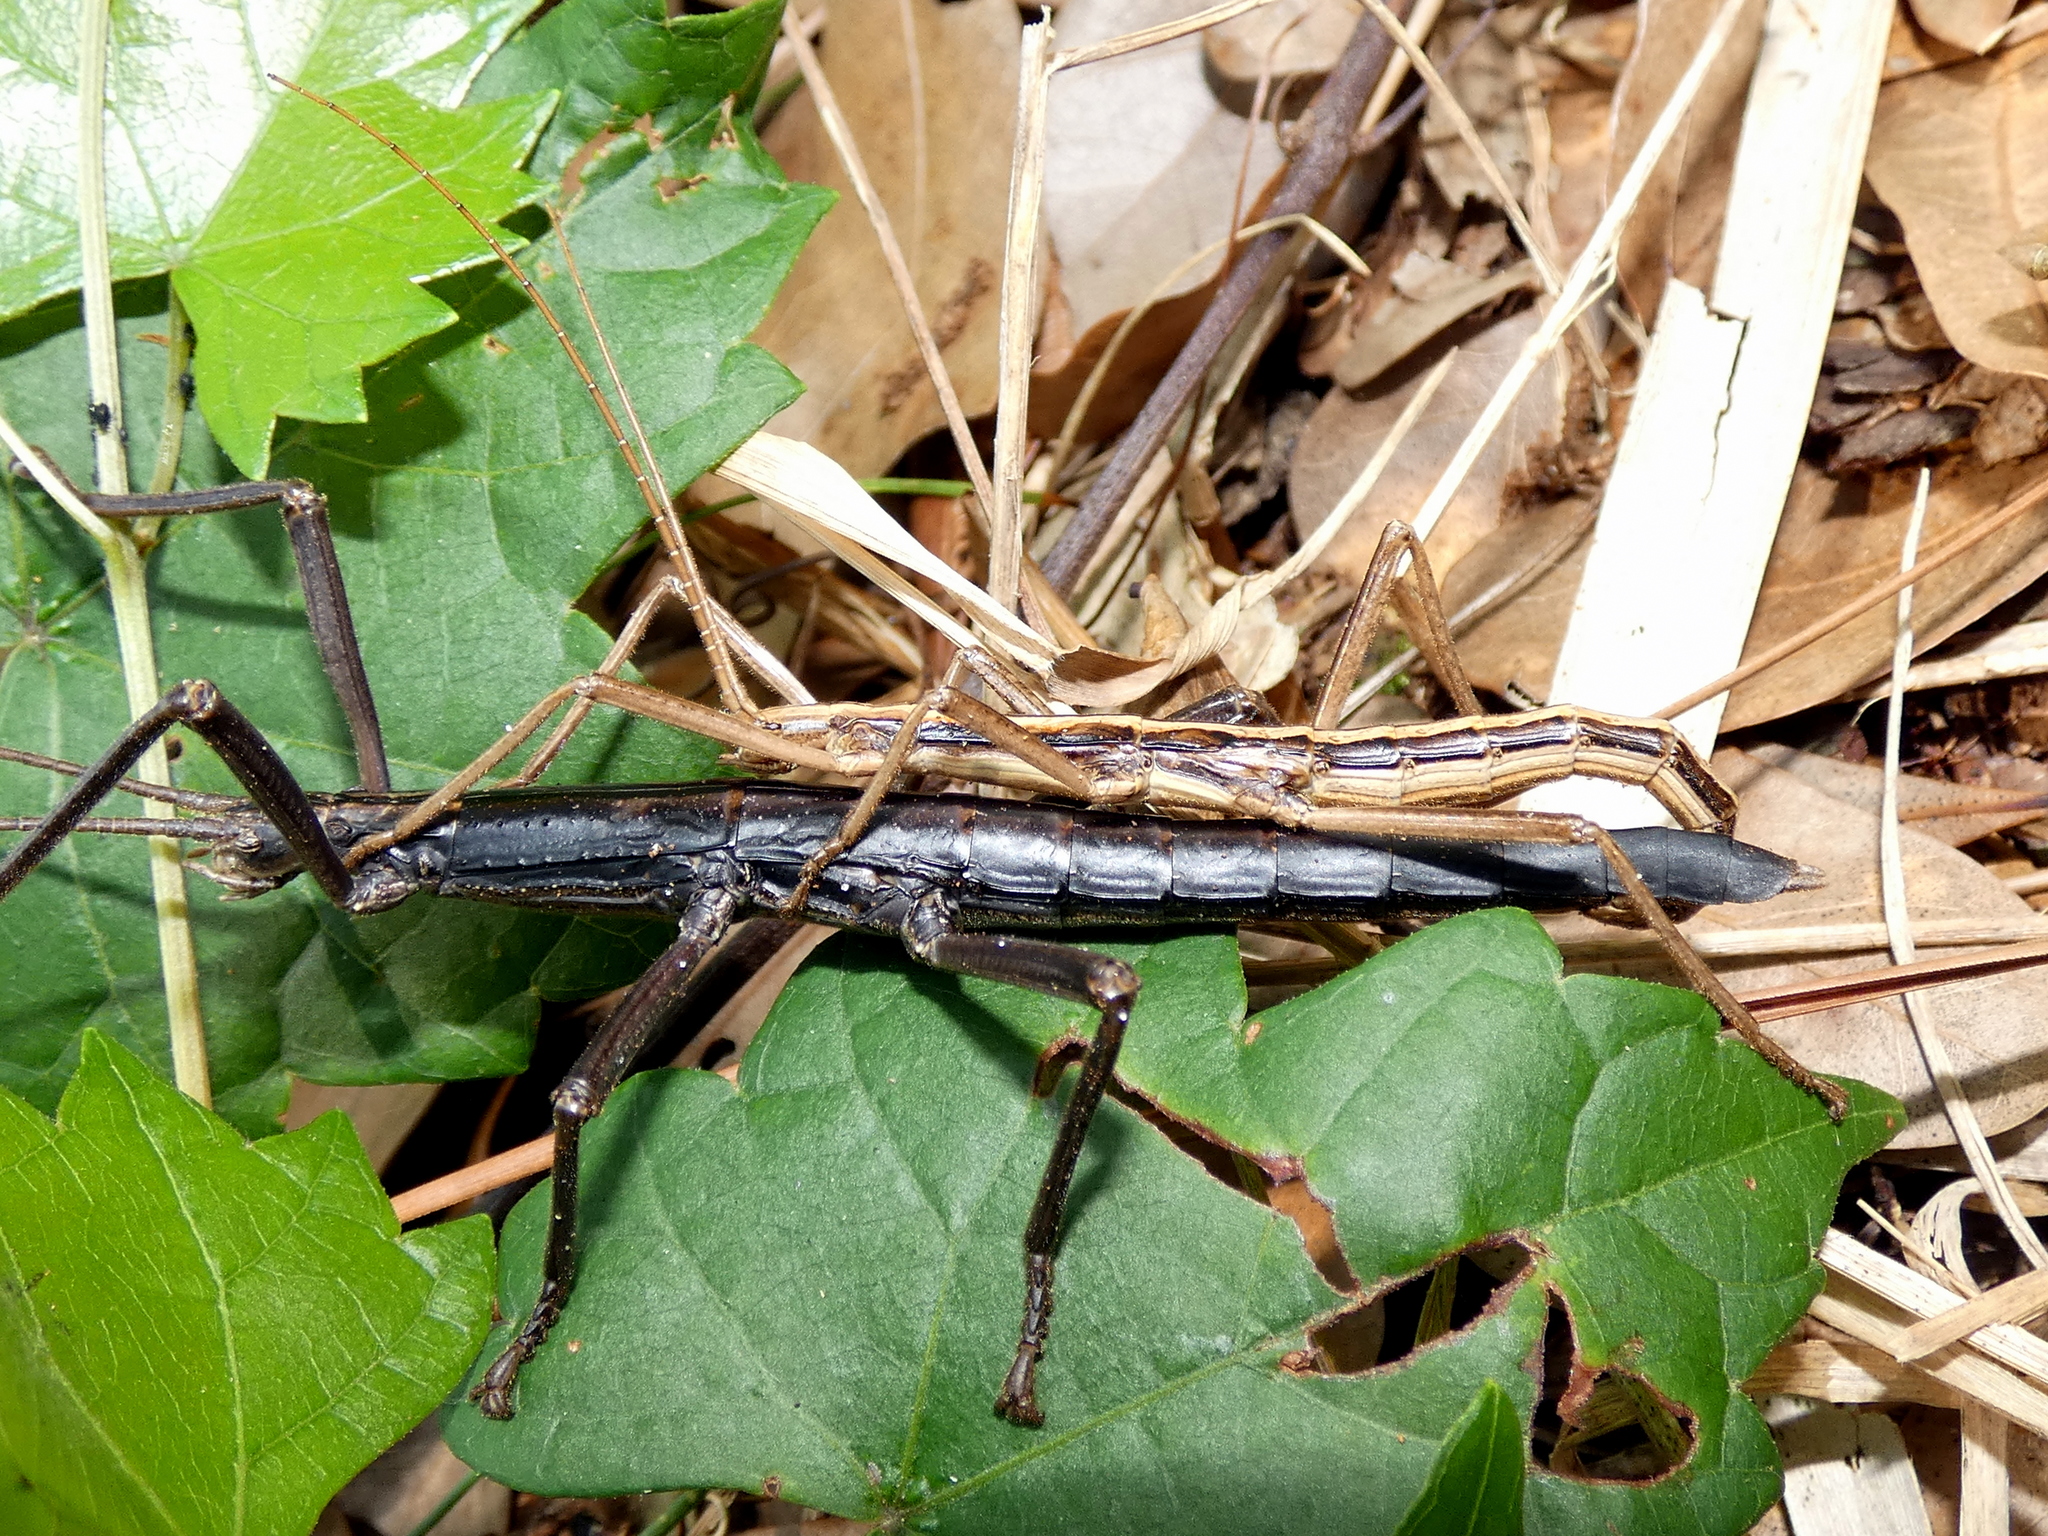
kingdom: Animalia
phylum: Arthropoda
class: Insecta
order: Phasmida
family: Pseudophasmatidae
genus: Anisomorpha
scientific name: Anisomorpha buprestoides
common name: Florida stick insect
